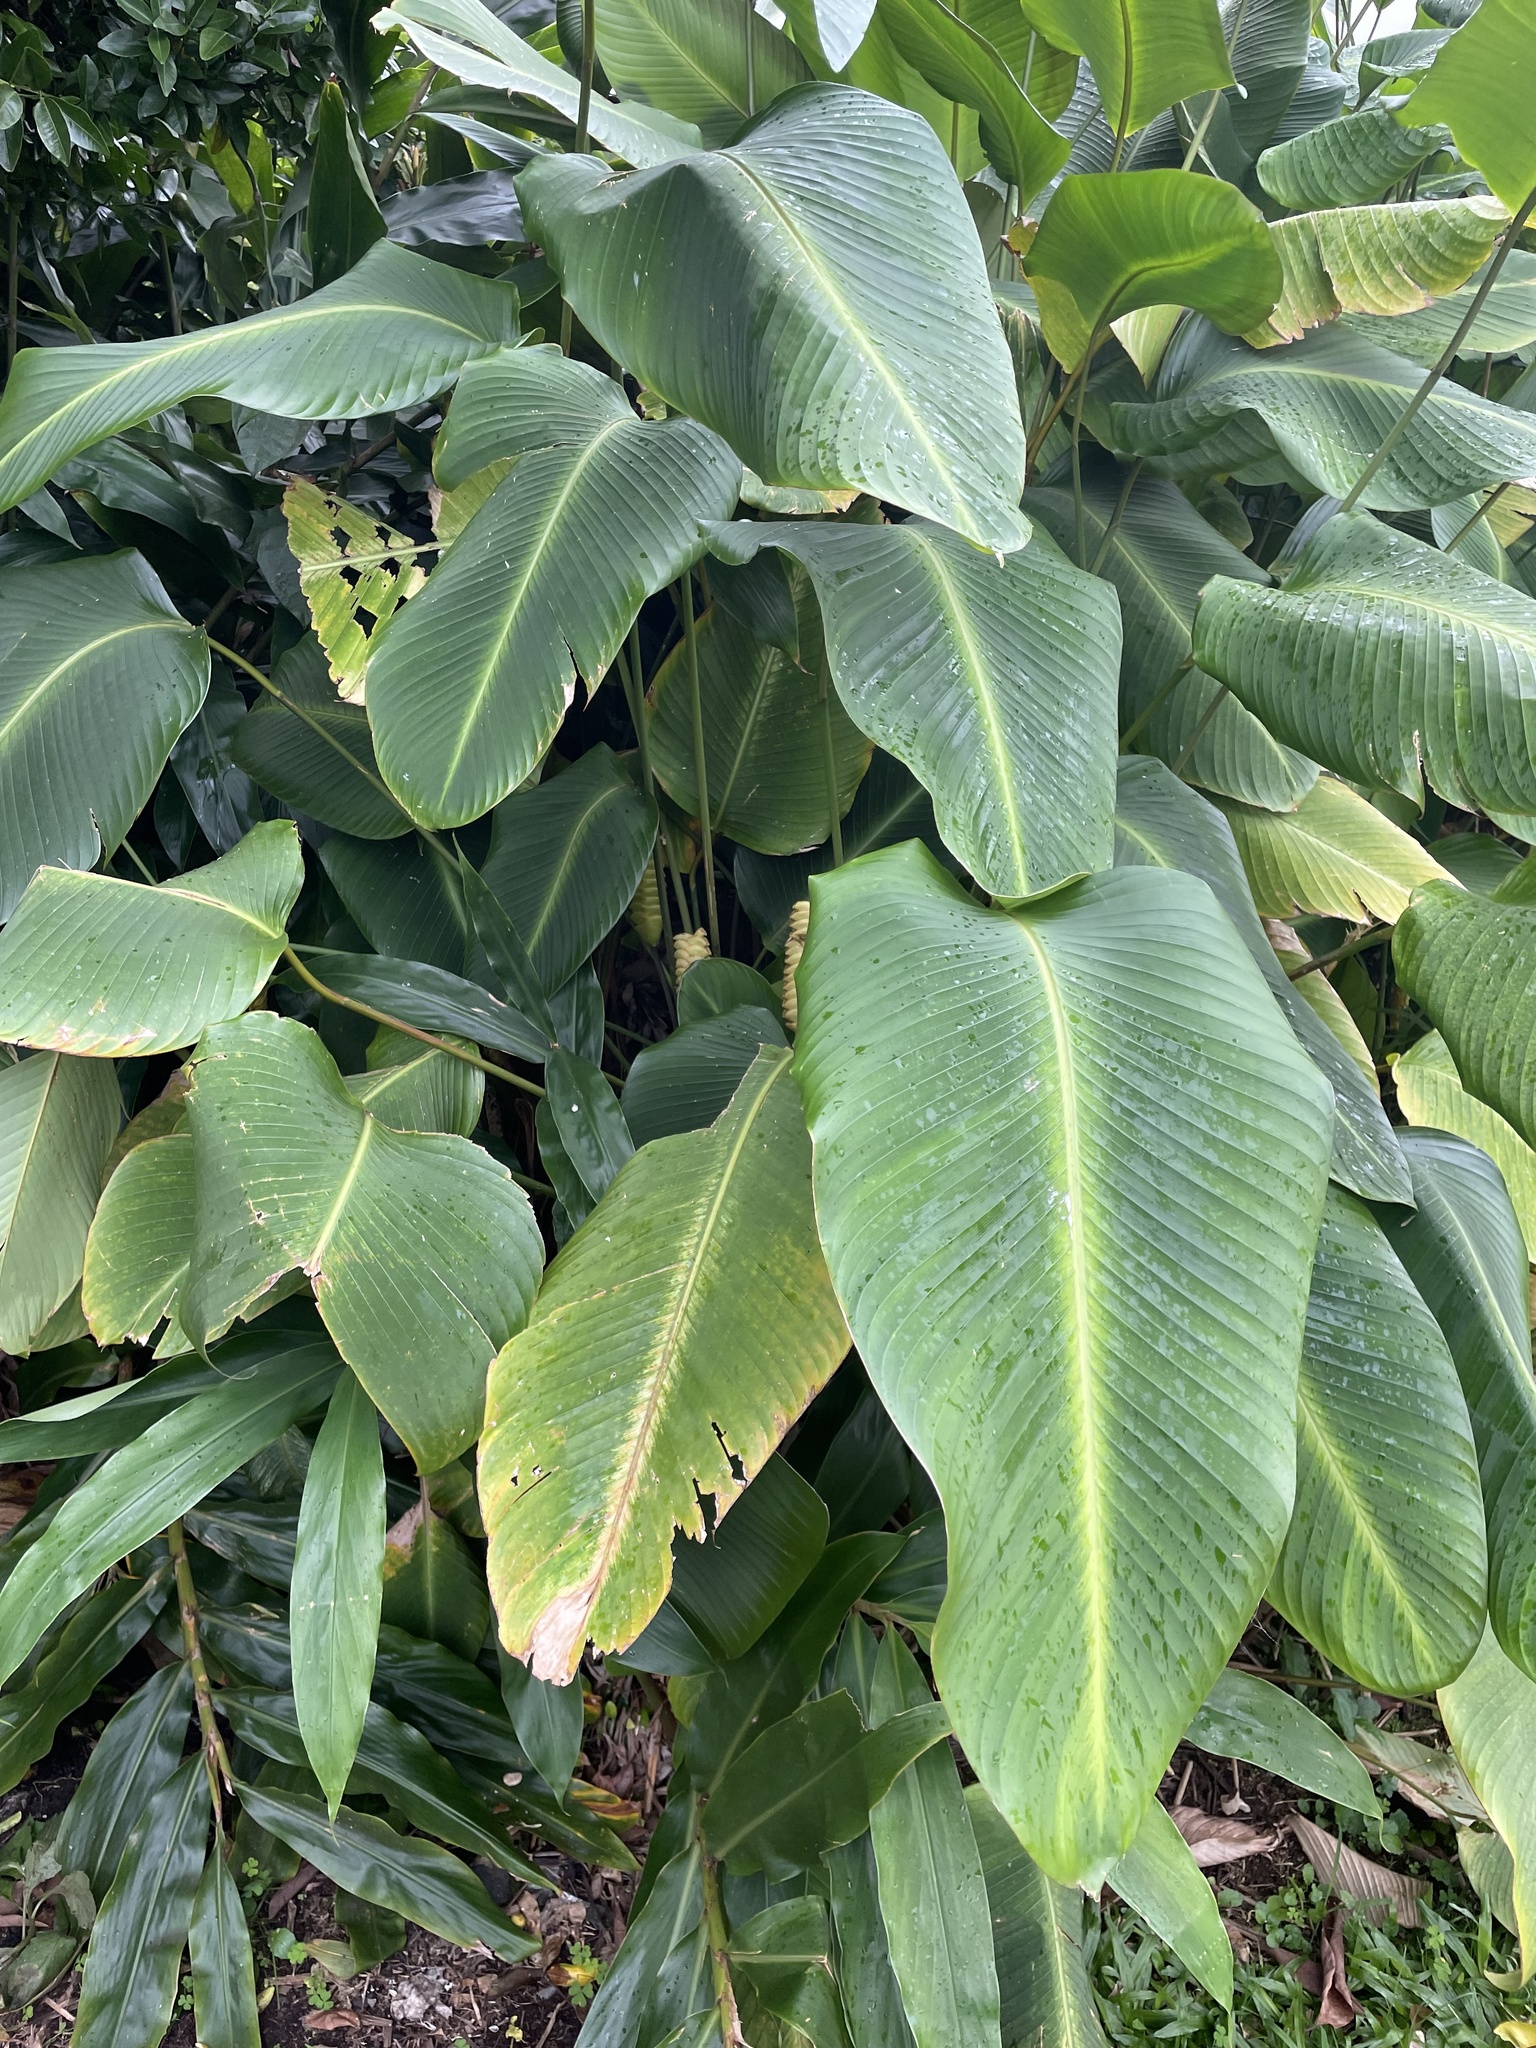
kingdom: Plantae
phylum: Tracheophyta
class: Liliopsida
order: Zingiberales
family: Marantaceae
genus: Calathea
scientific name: Calathea crotalifera
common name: Rattlesnake plant
